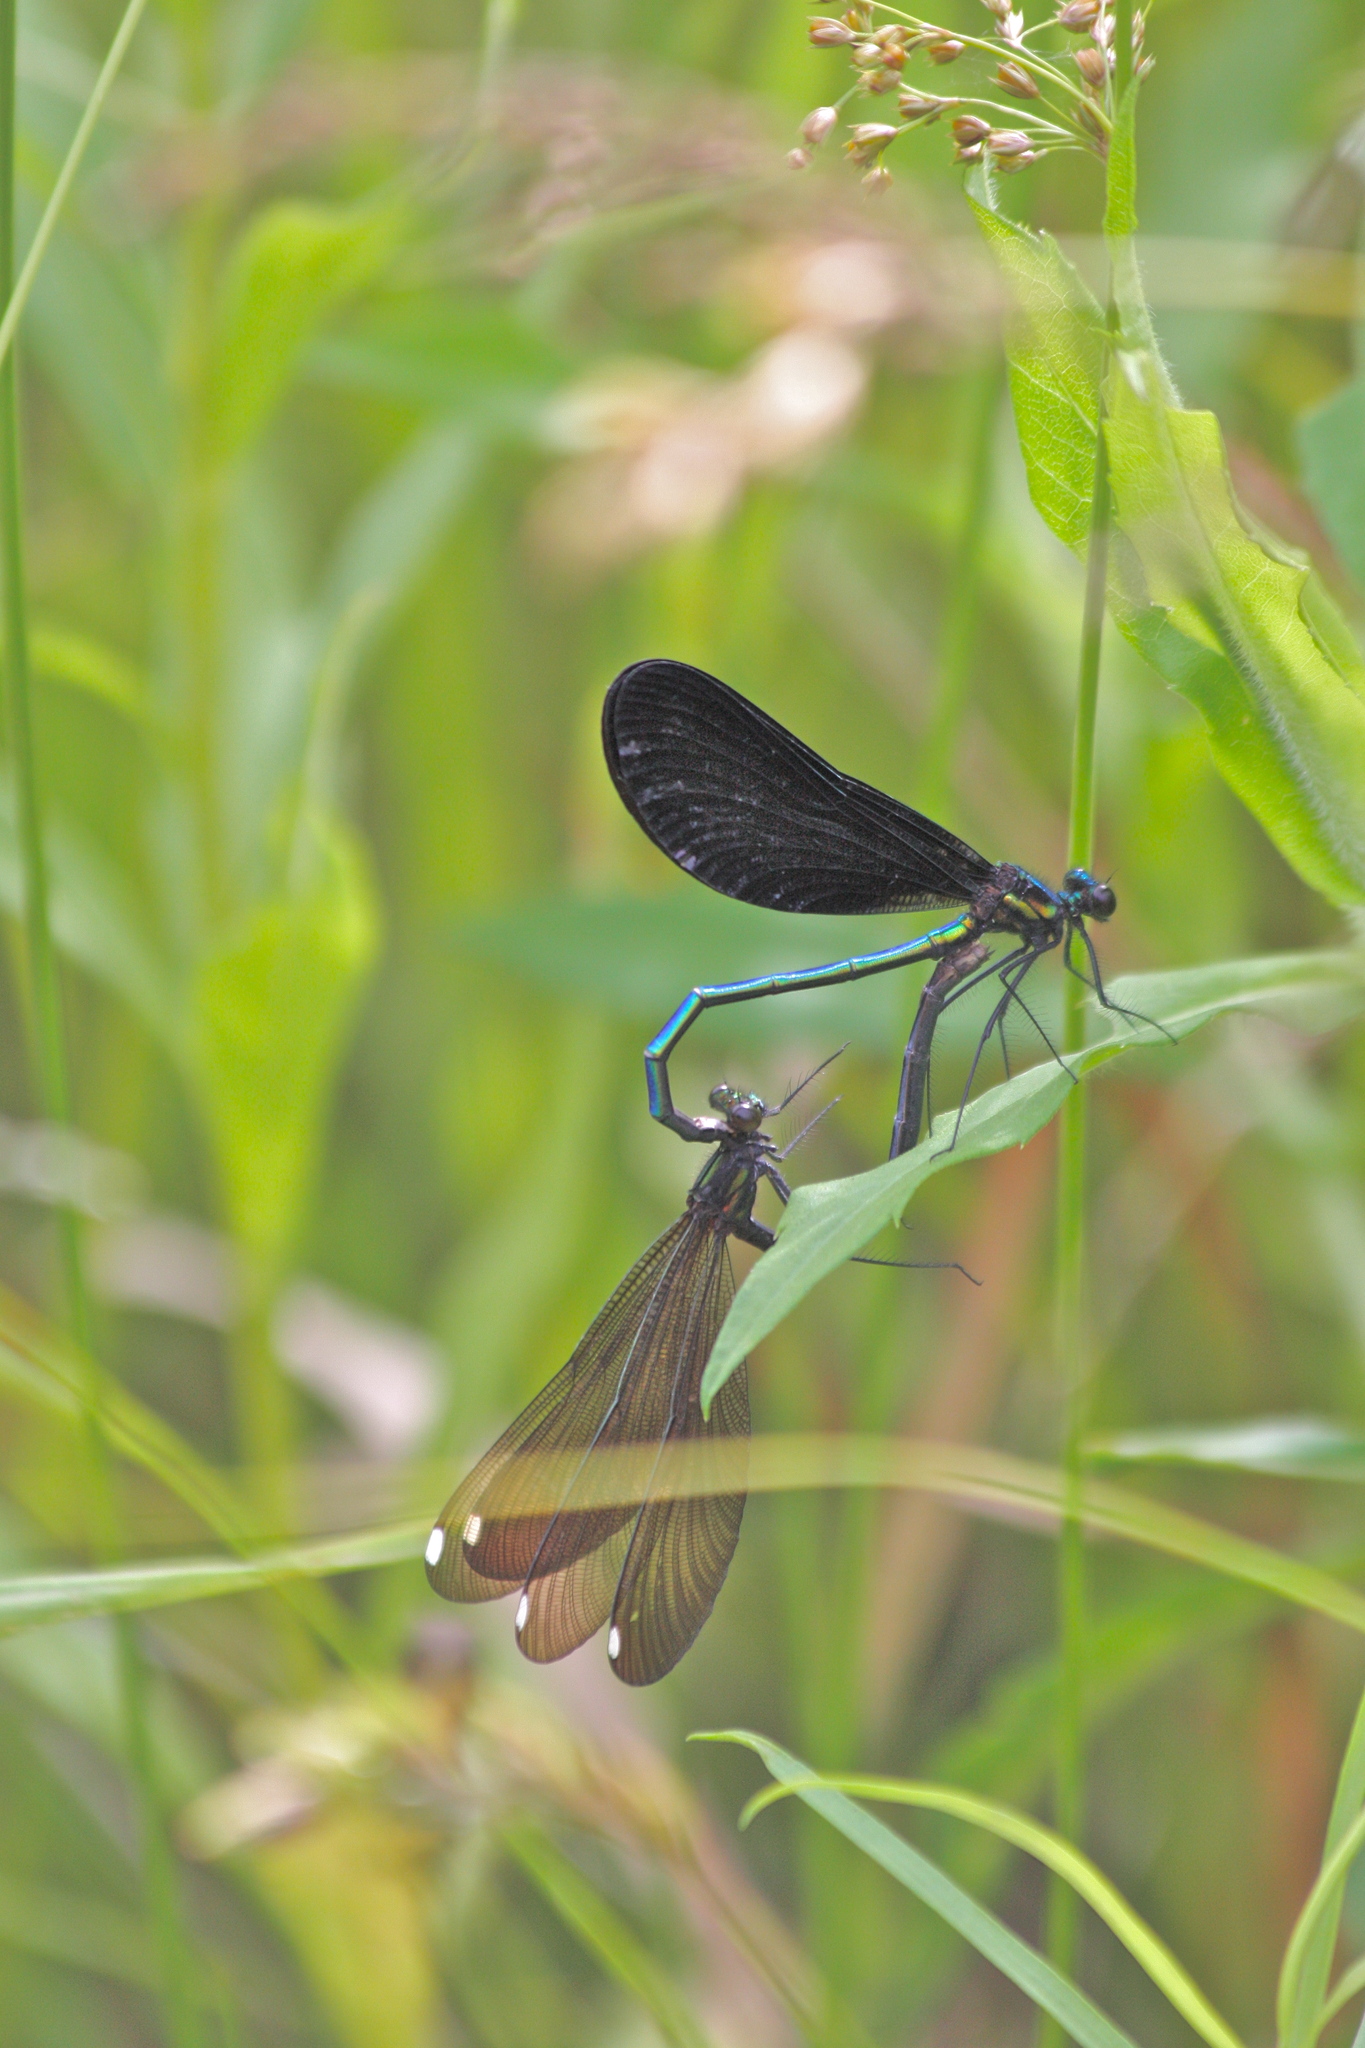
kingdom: Animalia
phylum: Arthropoda
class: Insecta
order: Odonata
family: Calopterygidae
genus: Calopteryx
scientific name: Calopteryx maculata
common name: Ebony jewelwing
